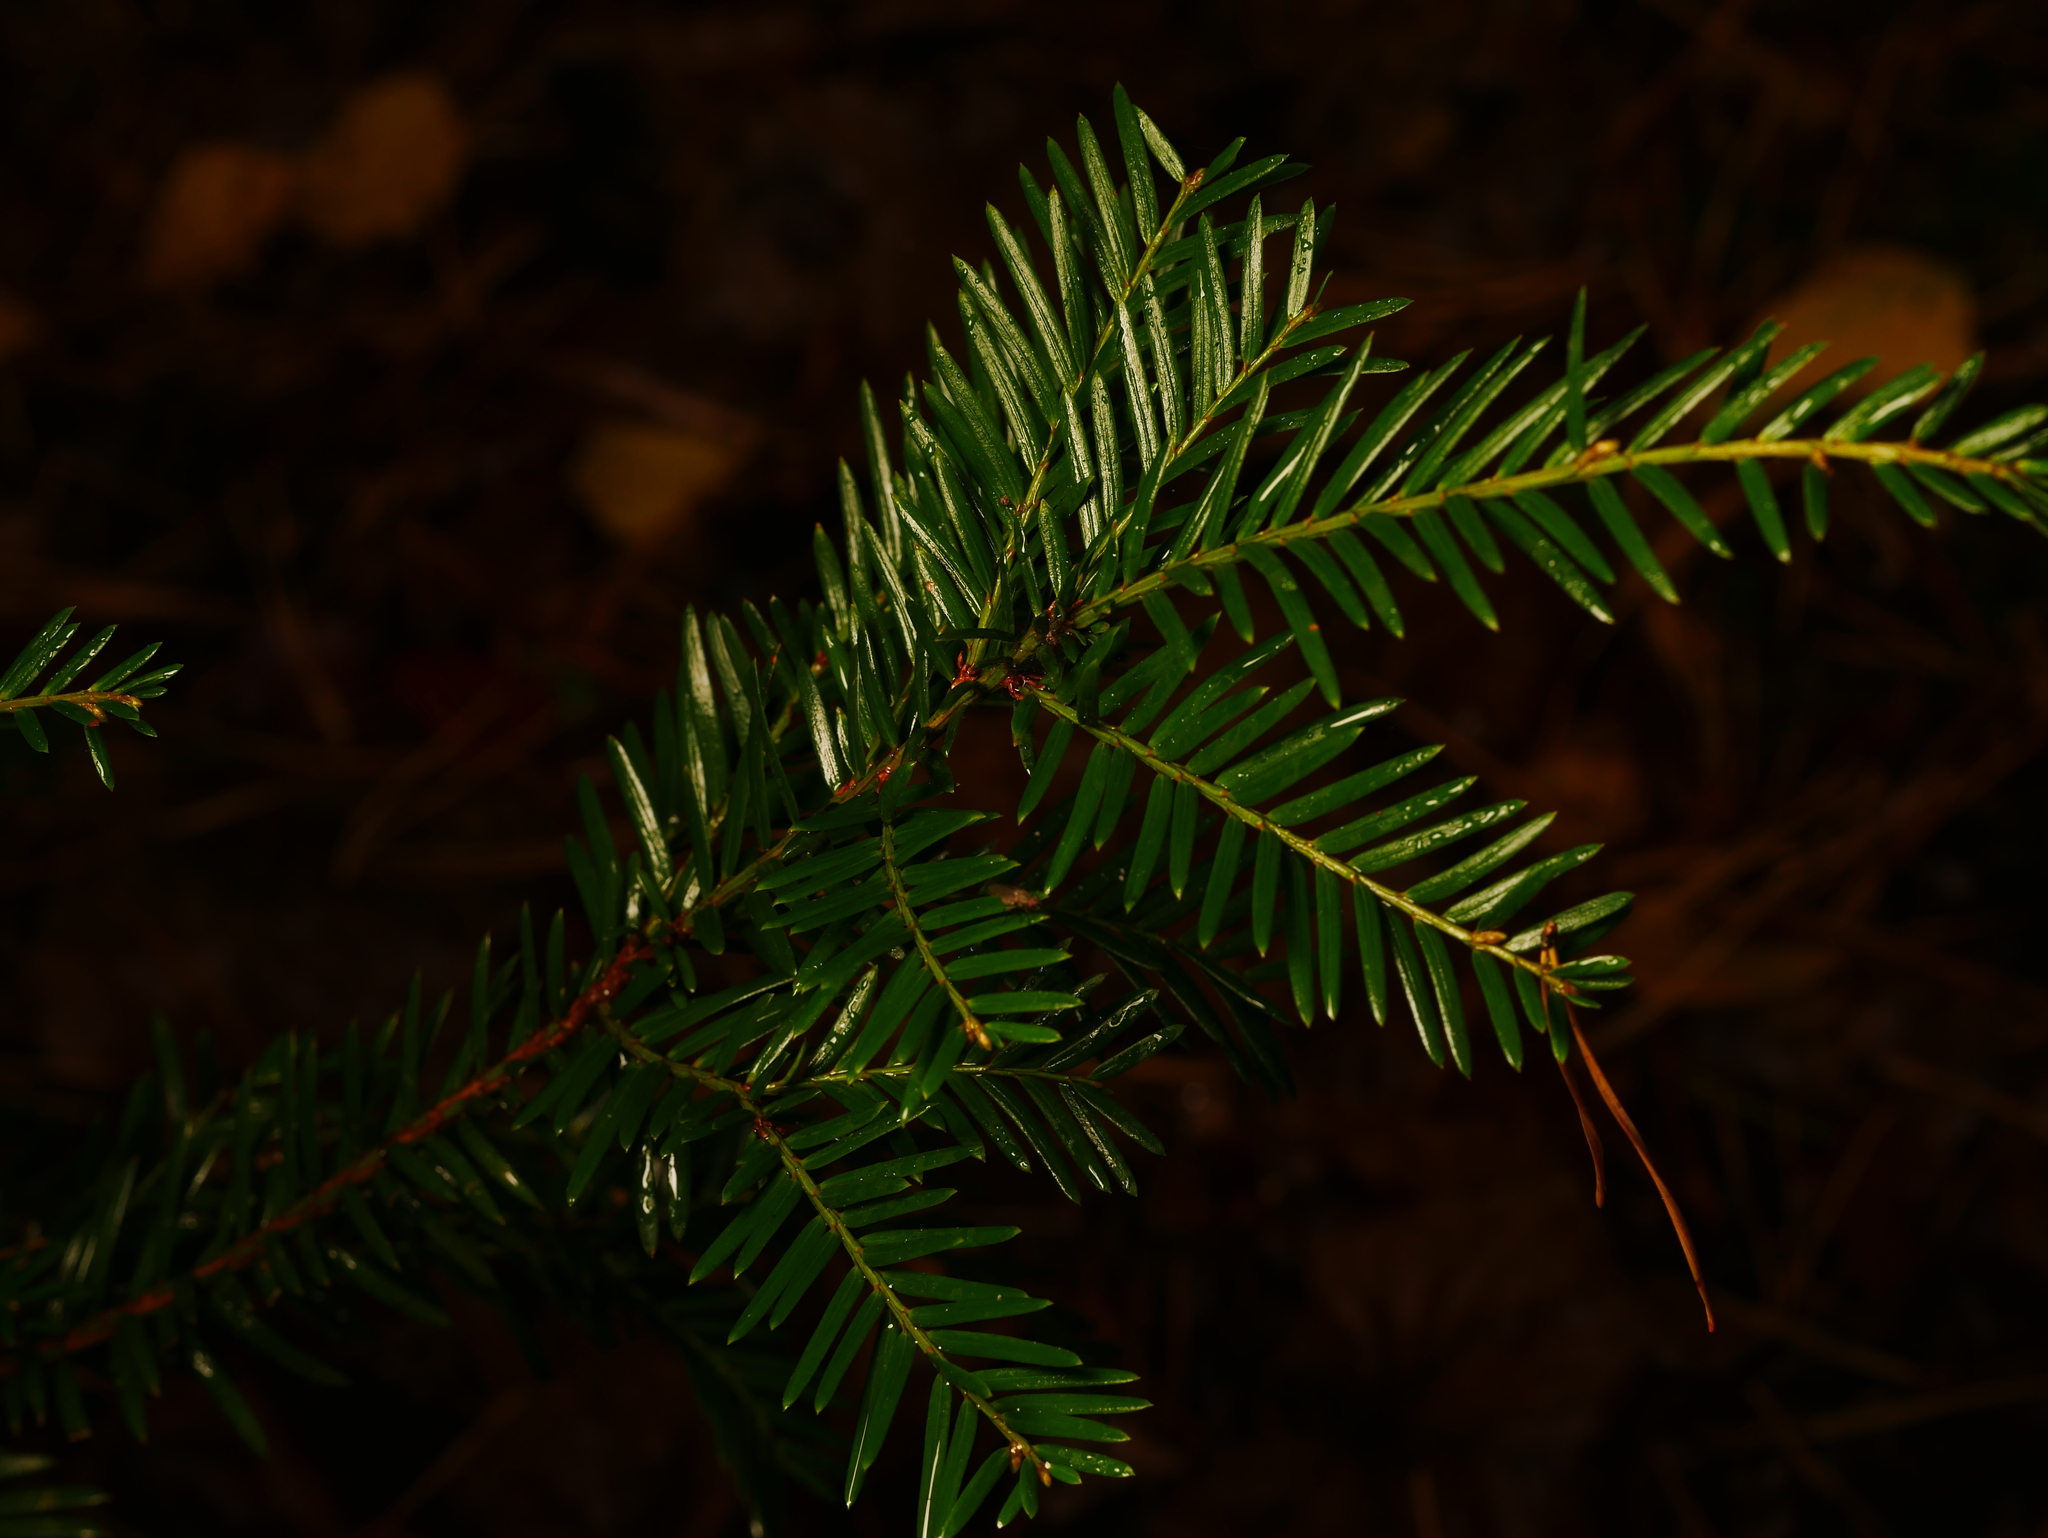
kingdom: Plantae
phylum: Tracheophyta
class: Pinopsida
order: Pinales
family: Taxaceae
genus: Taxus
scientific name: Taxus baccata
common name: Yew
